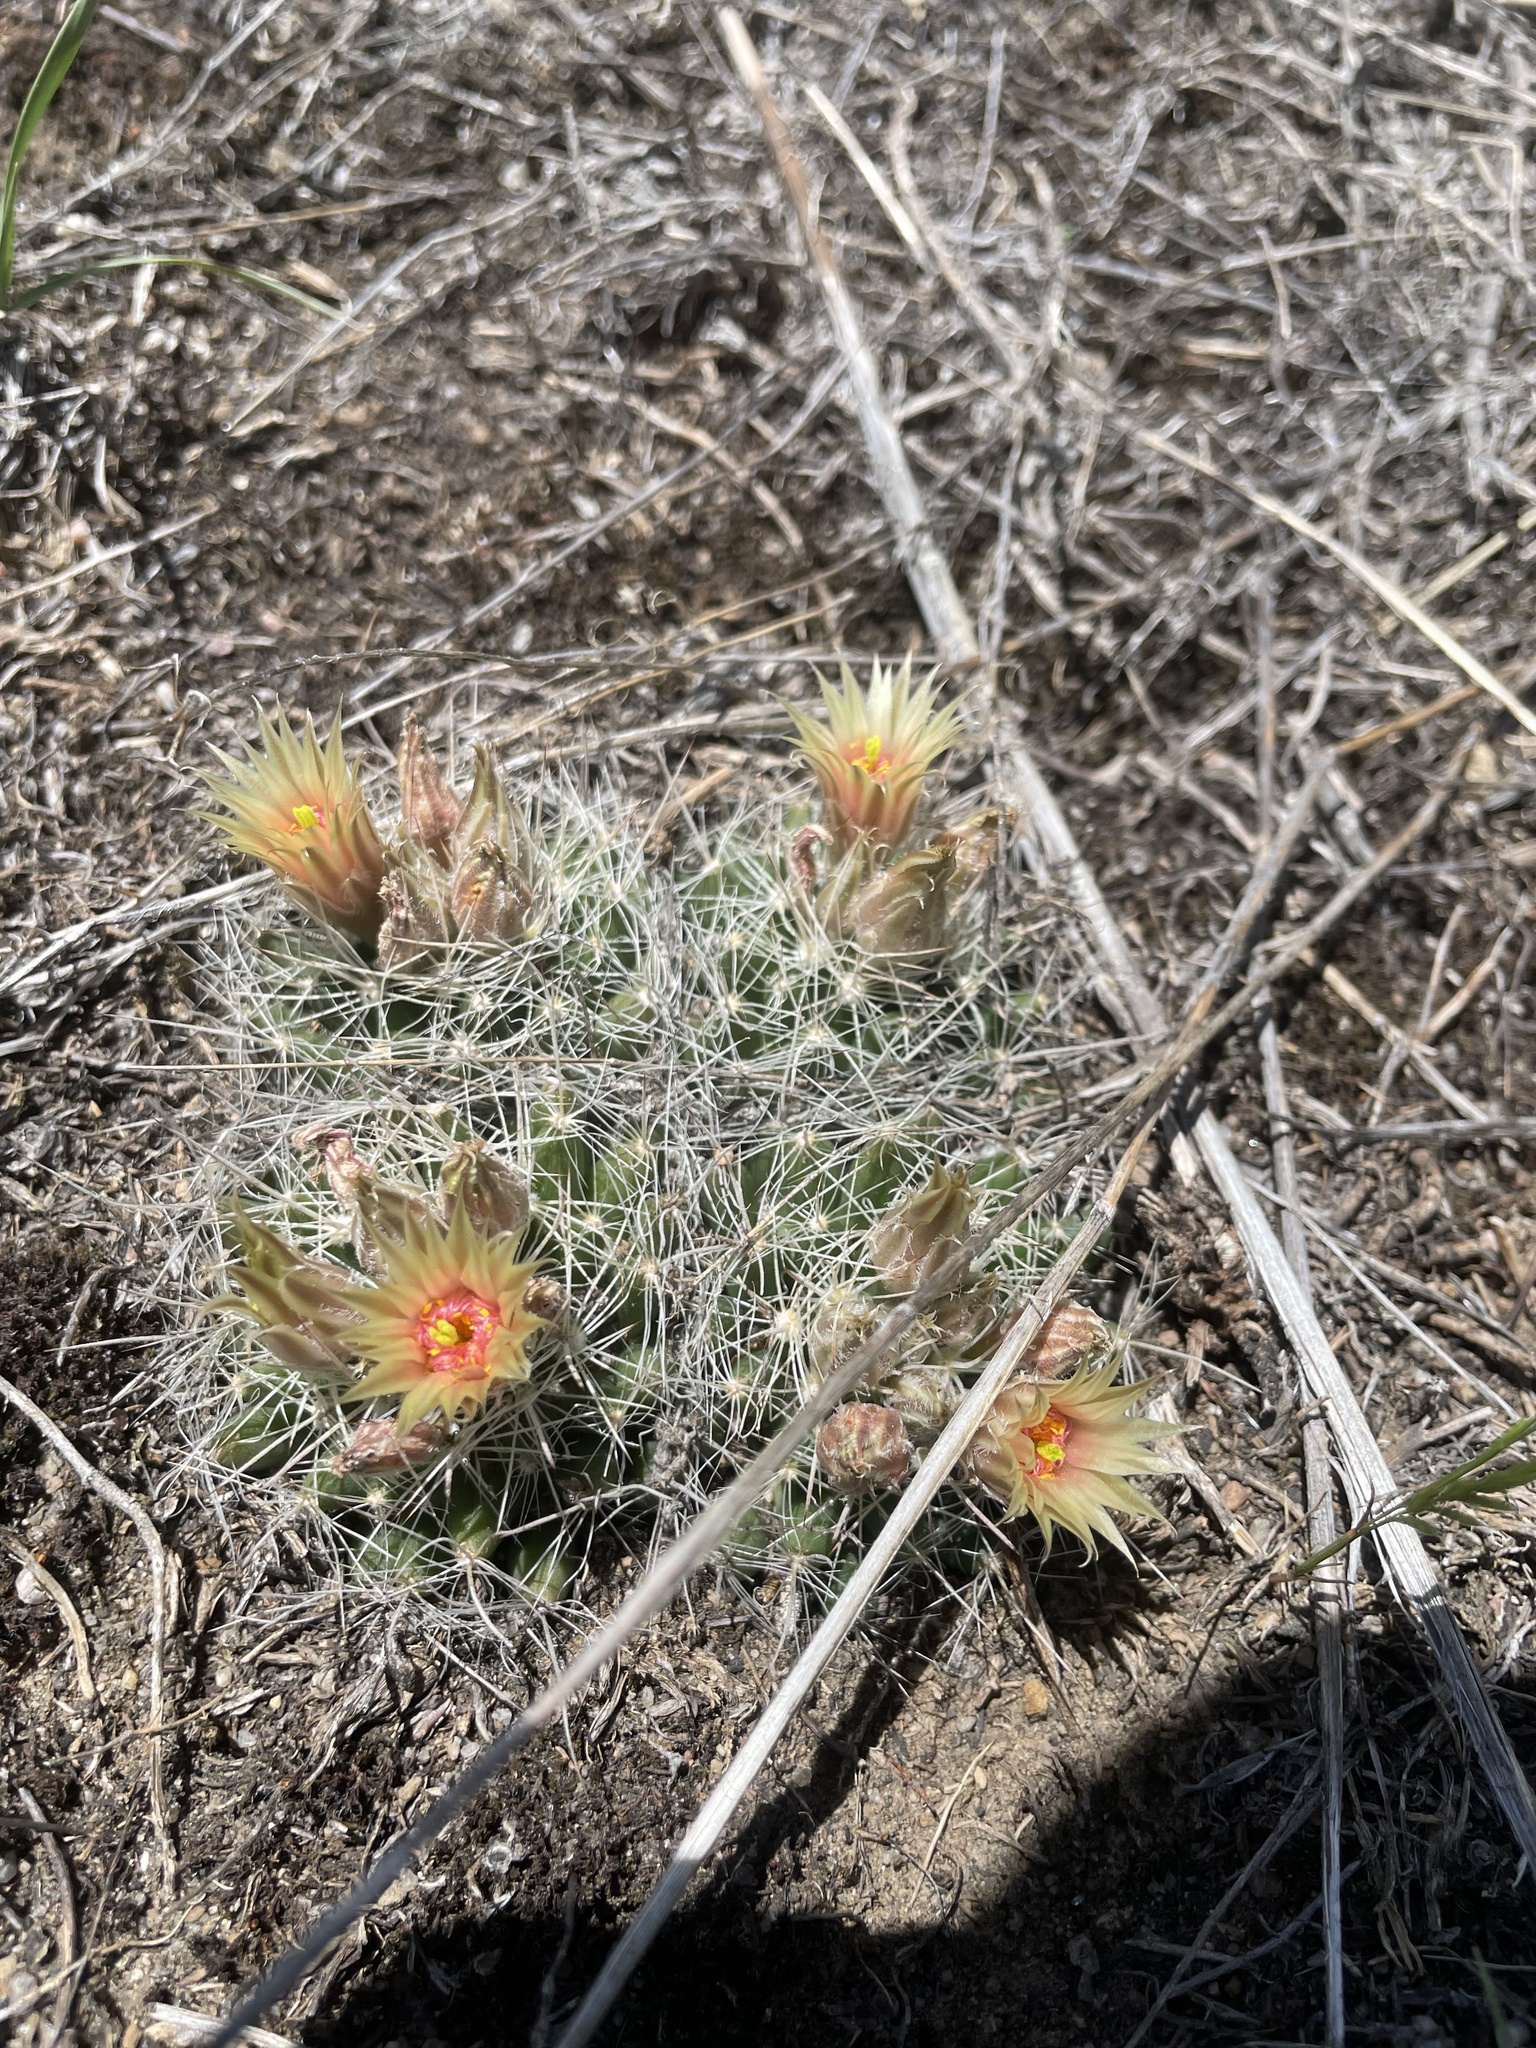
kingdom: Plantae
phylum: Tracheophyta
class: Magnoliopsida
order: Caryophyllales
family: Cactaceae
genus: Pelecyphora
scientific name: Pelecyphora missouriensis
